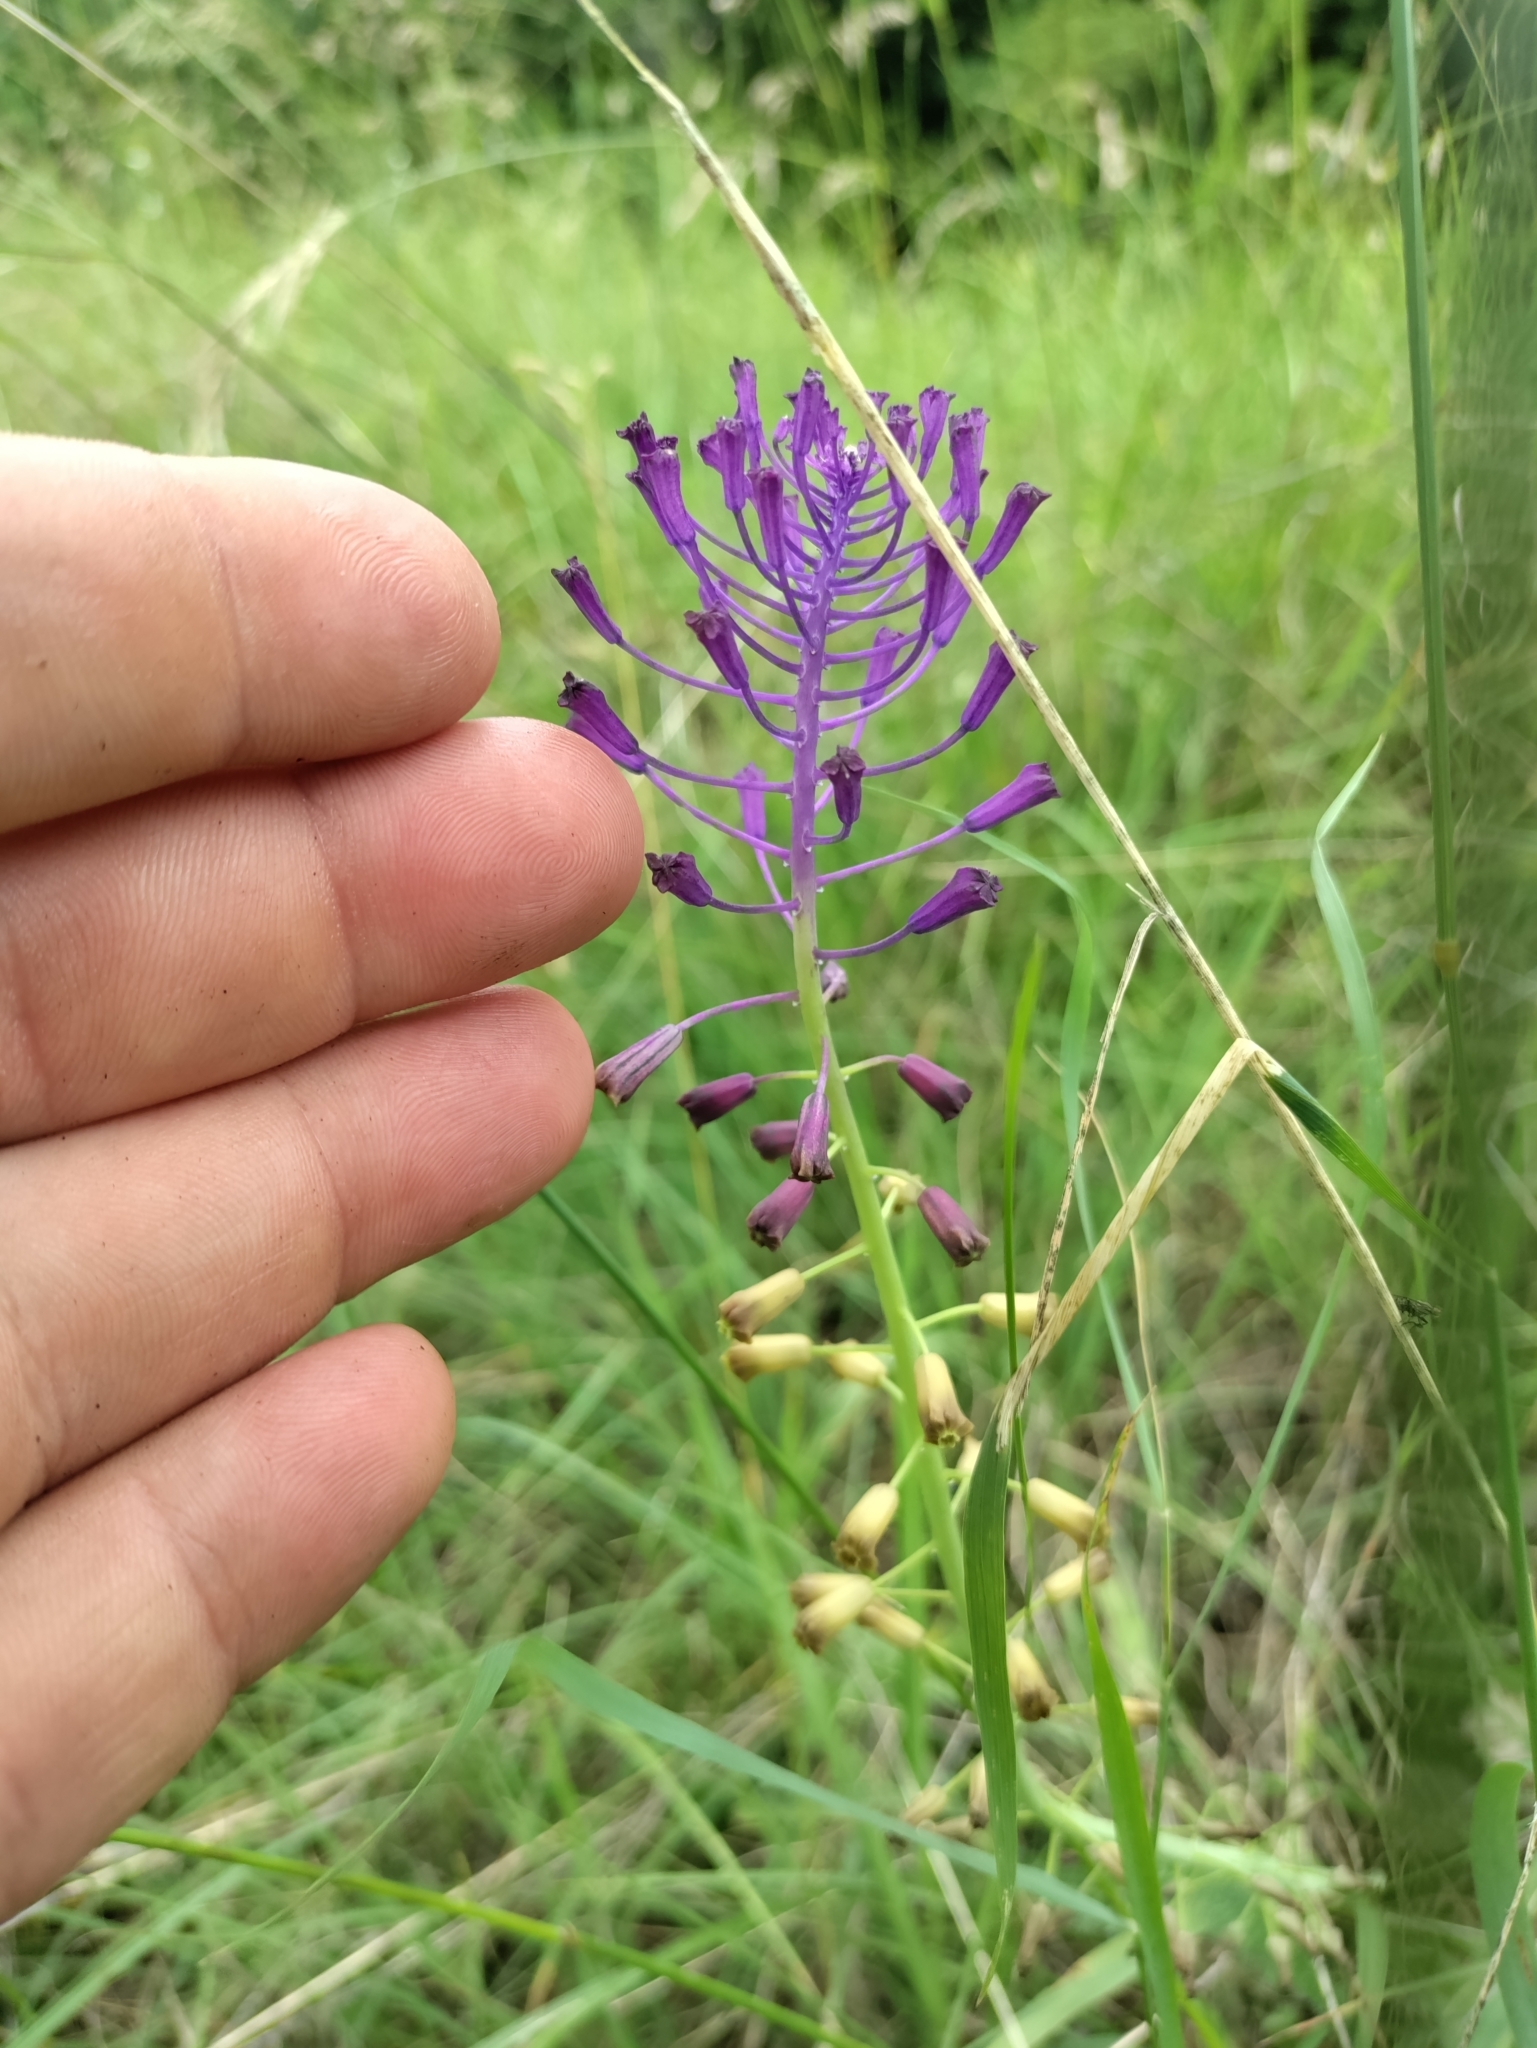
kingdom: Plantae
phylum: Tracheophyta
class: Liliopsida
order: Asparagales
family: Asparagaceae
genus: Muscari
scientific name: Muscari comosum
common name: Tassel hyacinth
